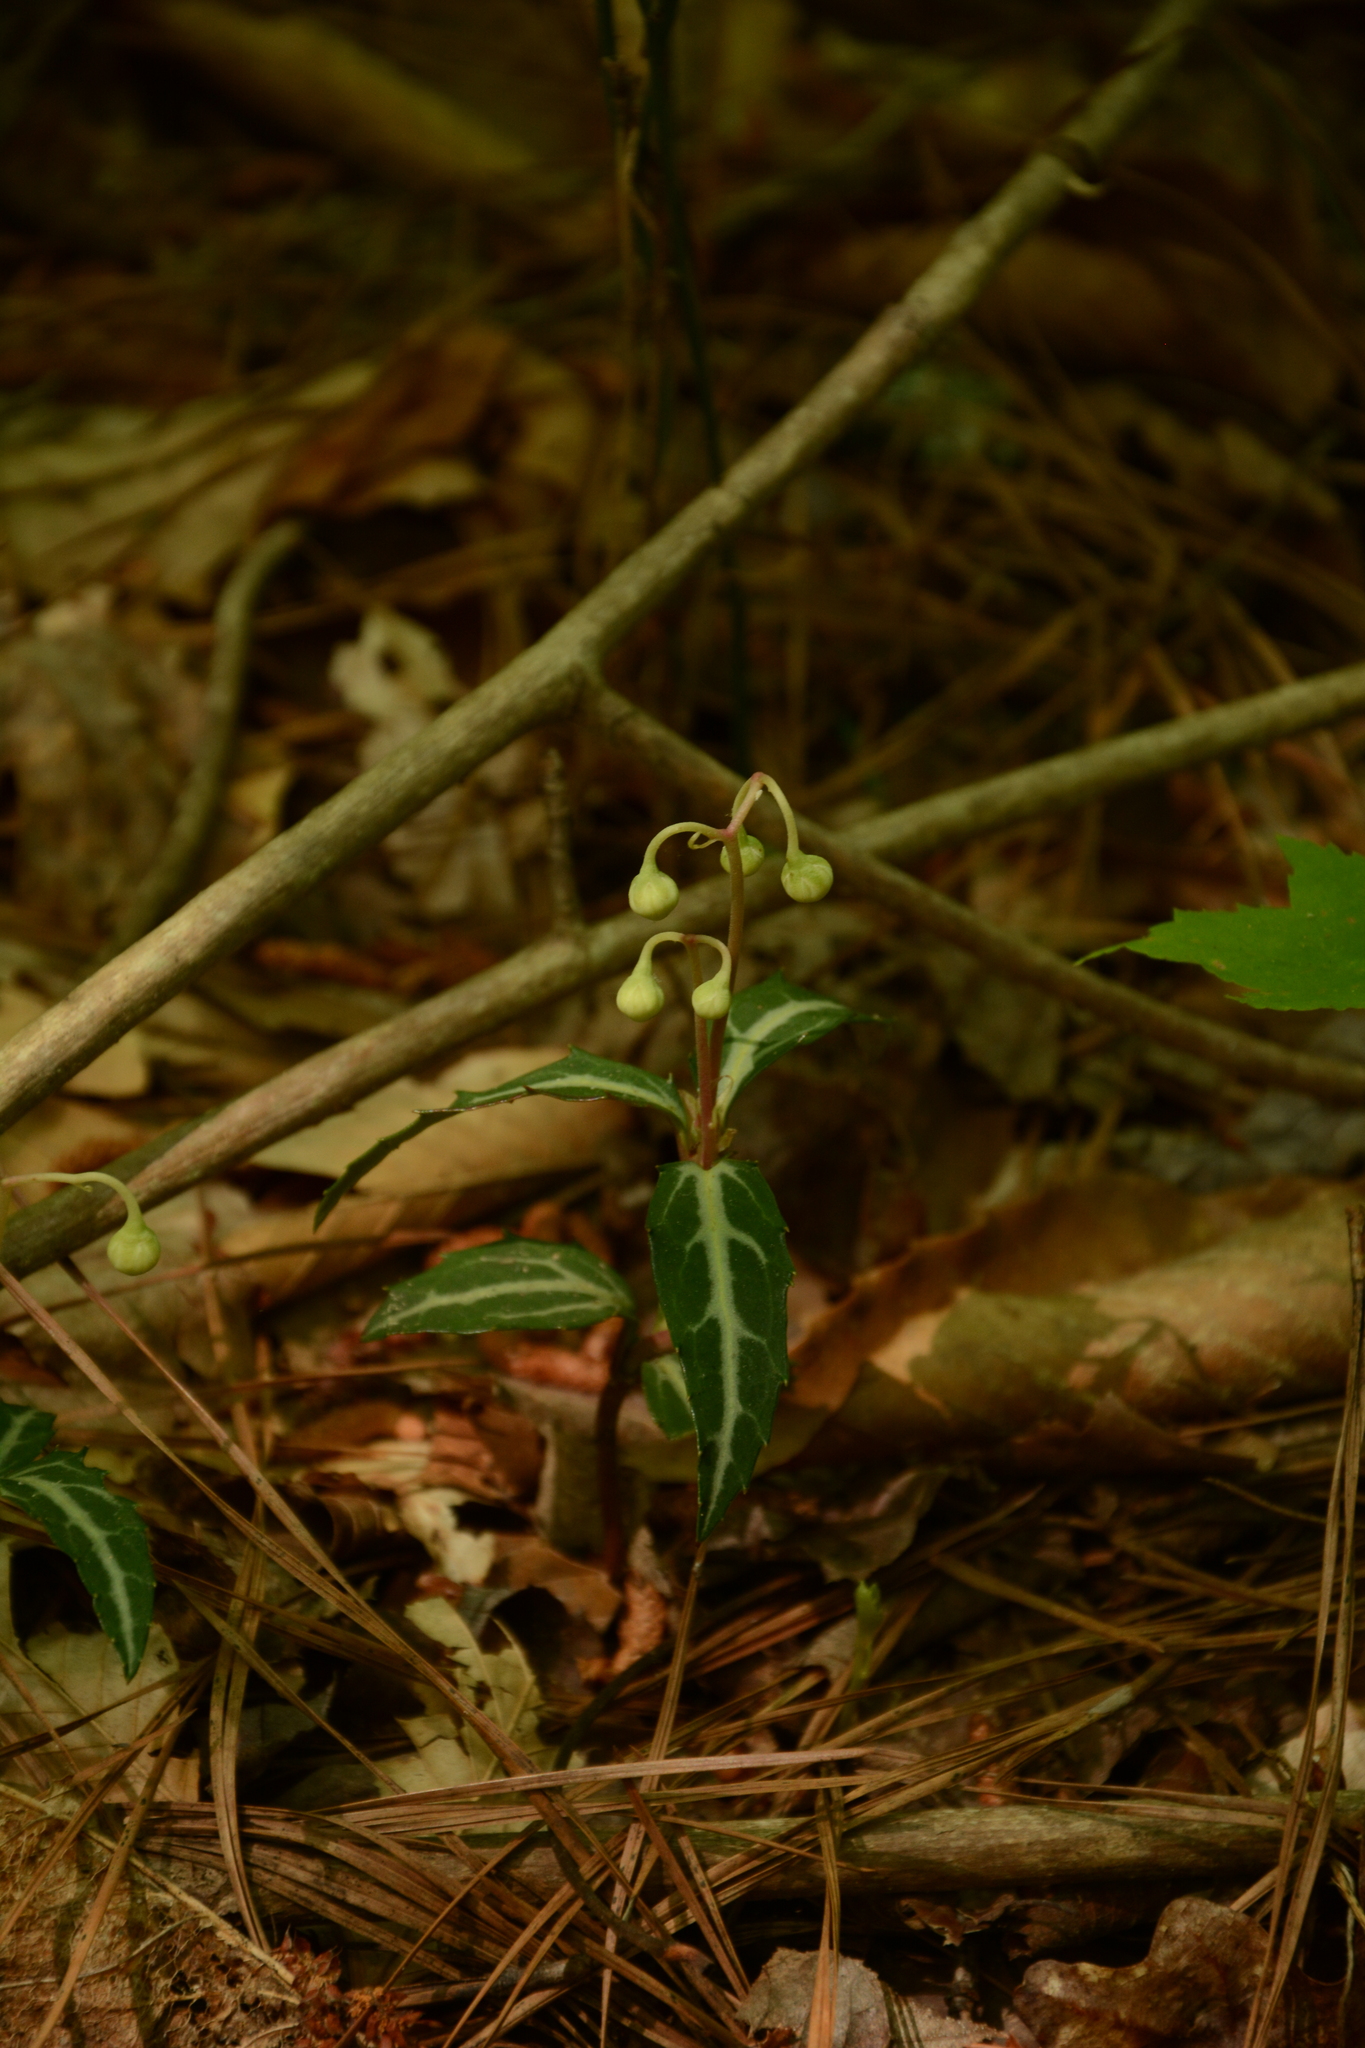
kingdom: Plantae
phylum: Tracheophyta
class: Magnoliopsida
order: Ericales
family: Ericaceae
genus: Chimaphila
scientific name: Chimaphila maculata
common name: Spotted pipsissewa
